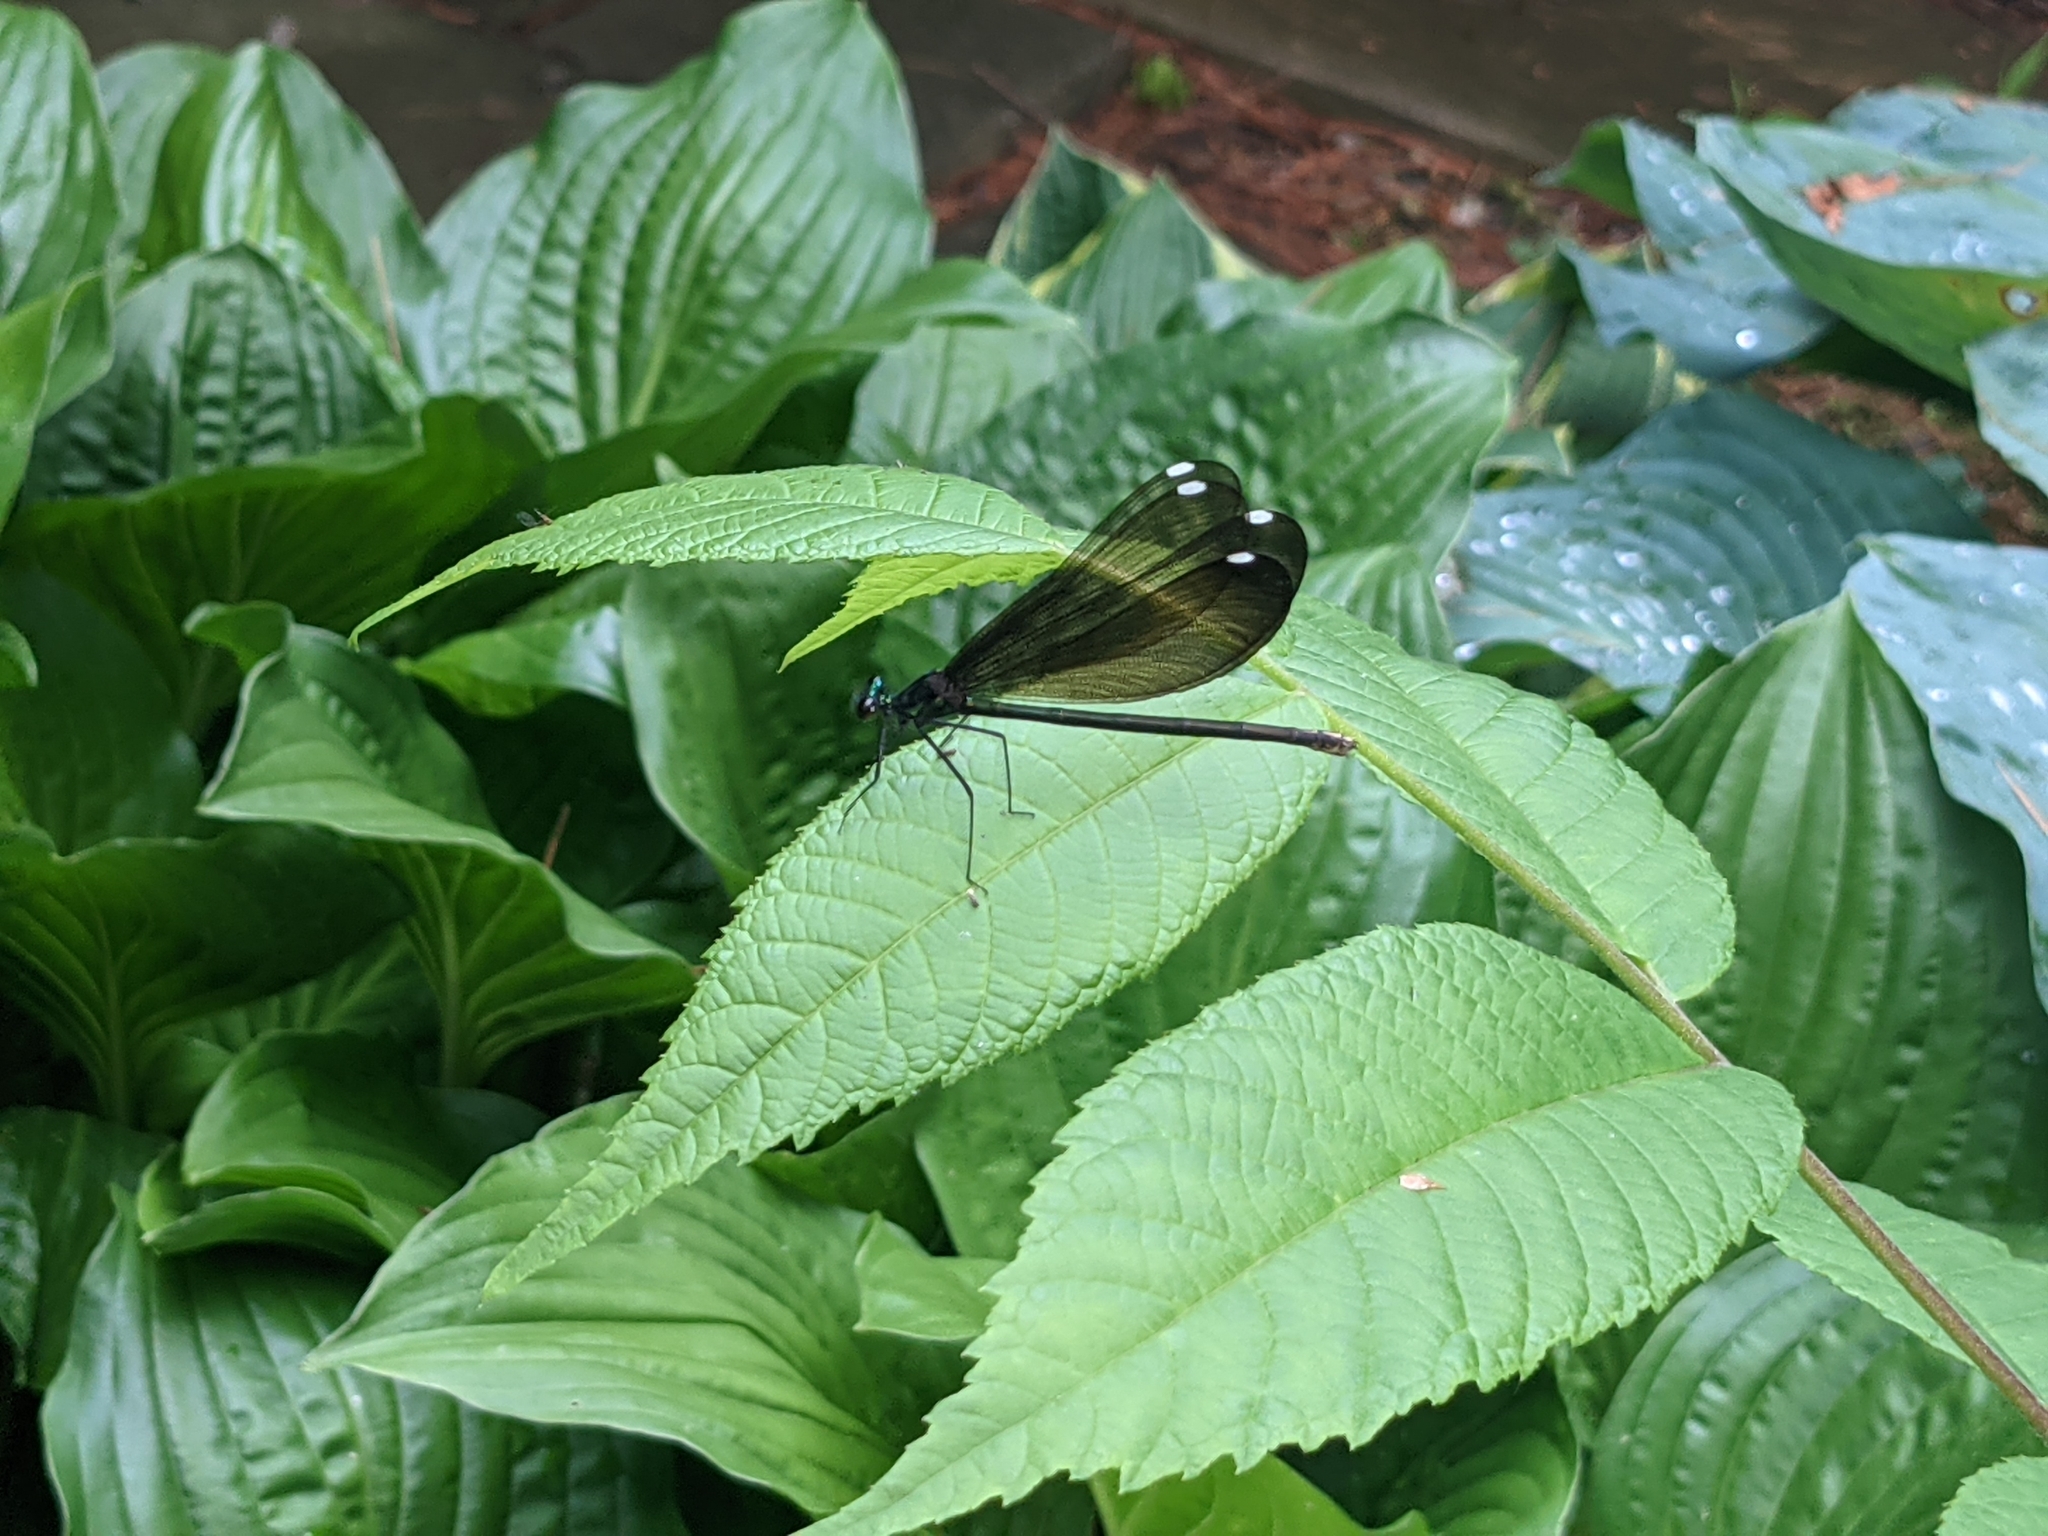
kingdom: Animalia
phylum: Arthropoda
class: Insecta
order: Odonata
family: Calopterygidae
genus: Calopteryx
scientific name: Calopteryx maculata
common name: Ebony jewelwing
